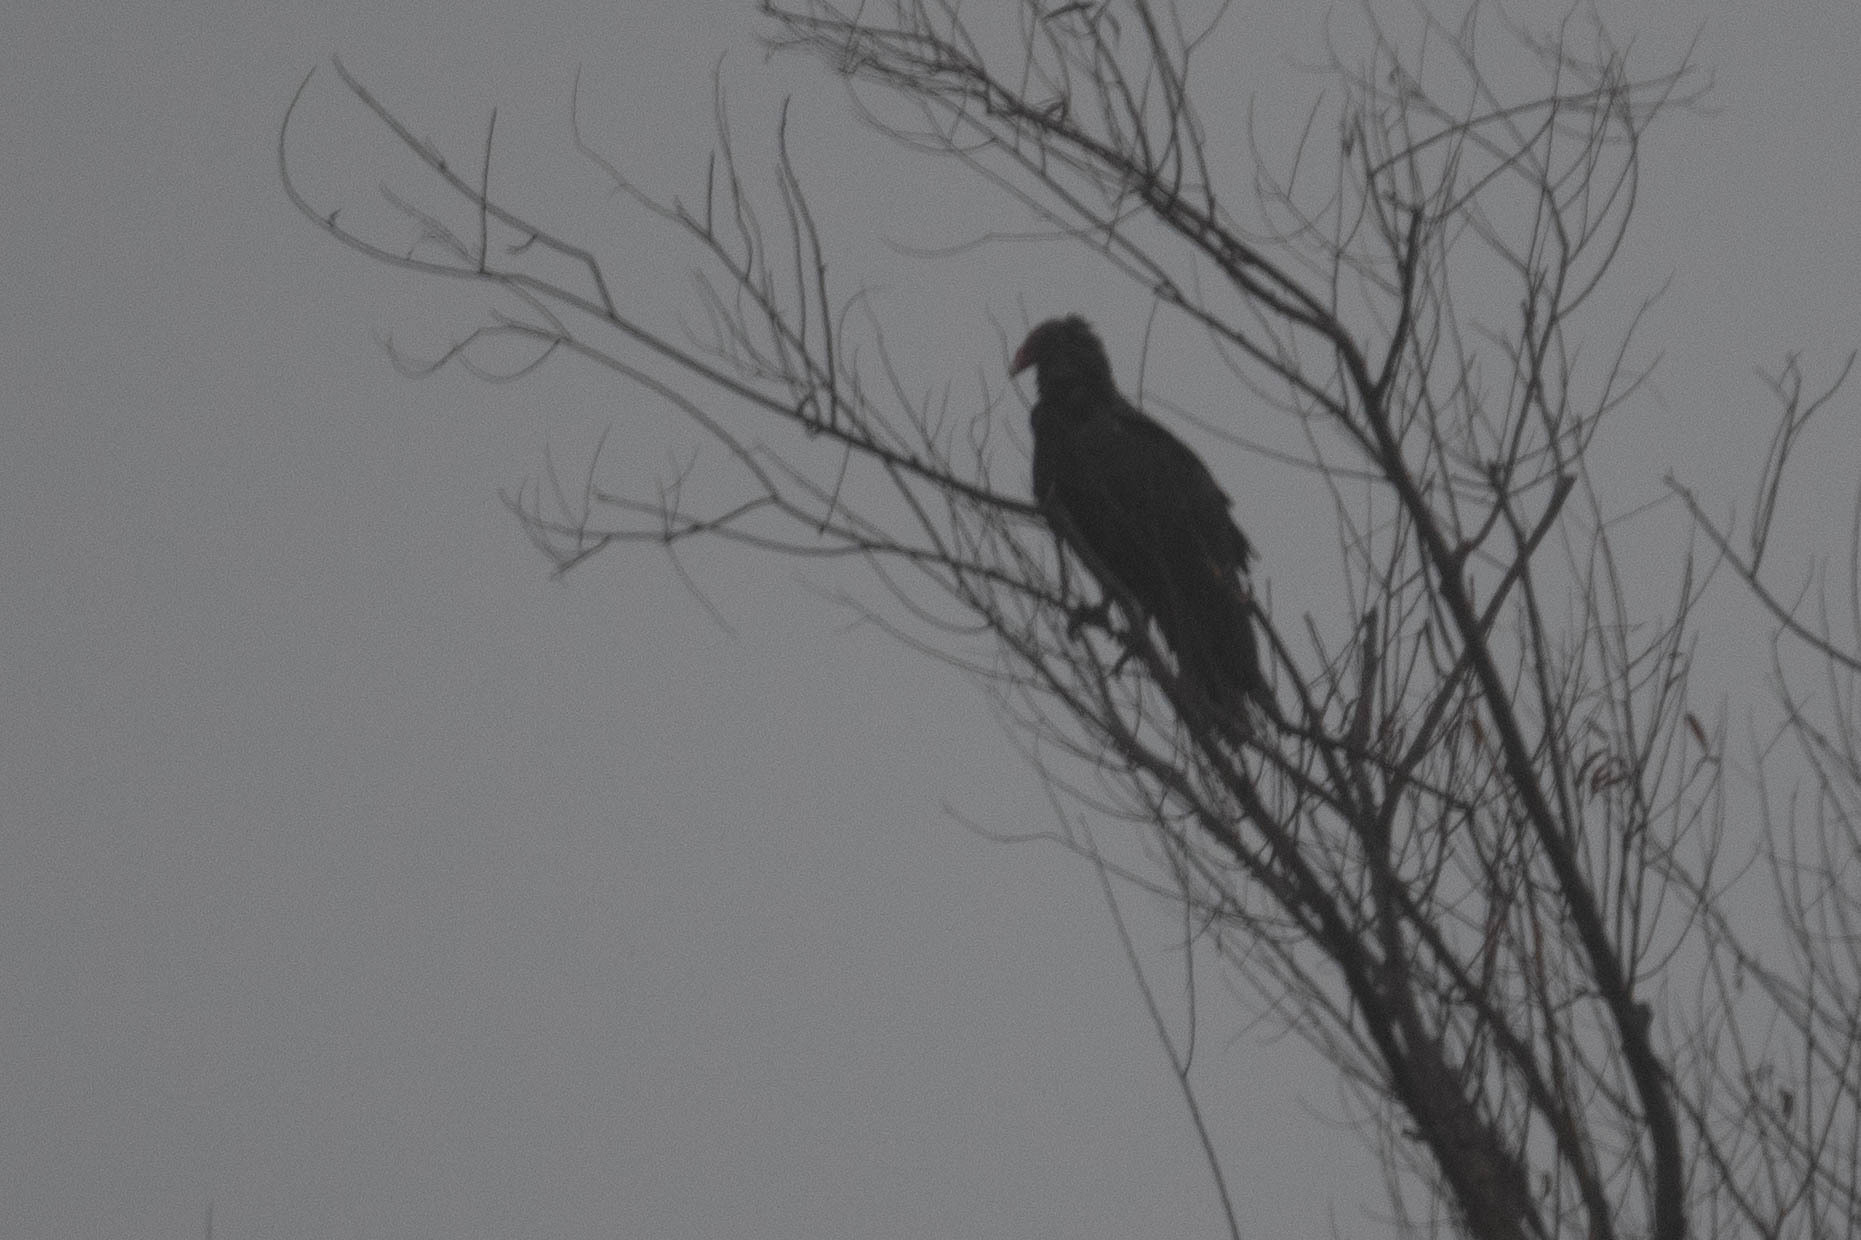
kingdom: Animalia
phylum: Chordata
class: Aves
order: Accipitriformes
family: Cathartidae
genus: Cathartes
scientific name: Cathartes aura
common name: Turkey vulture
